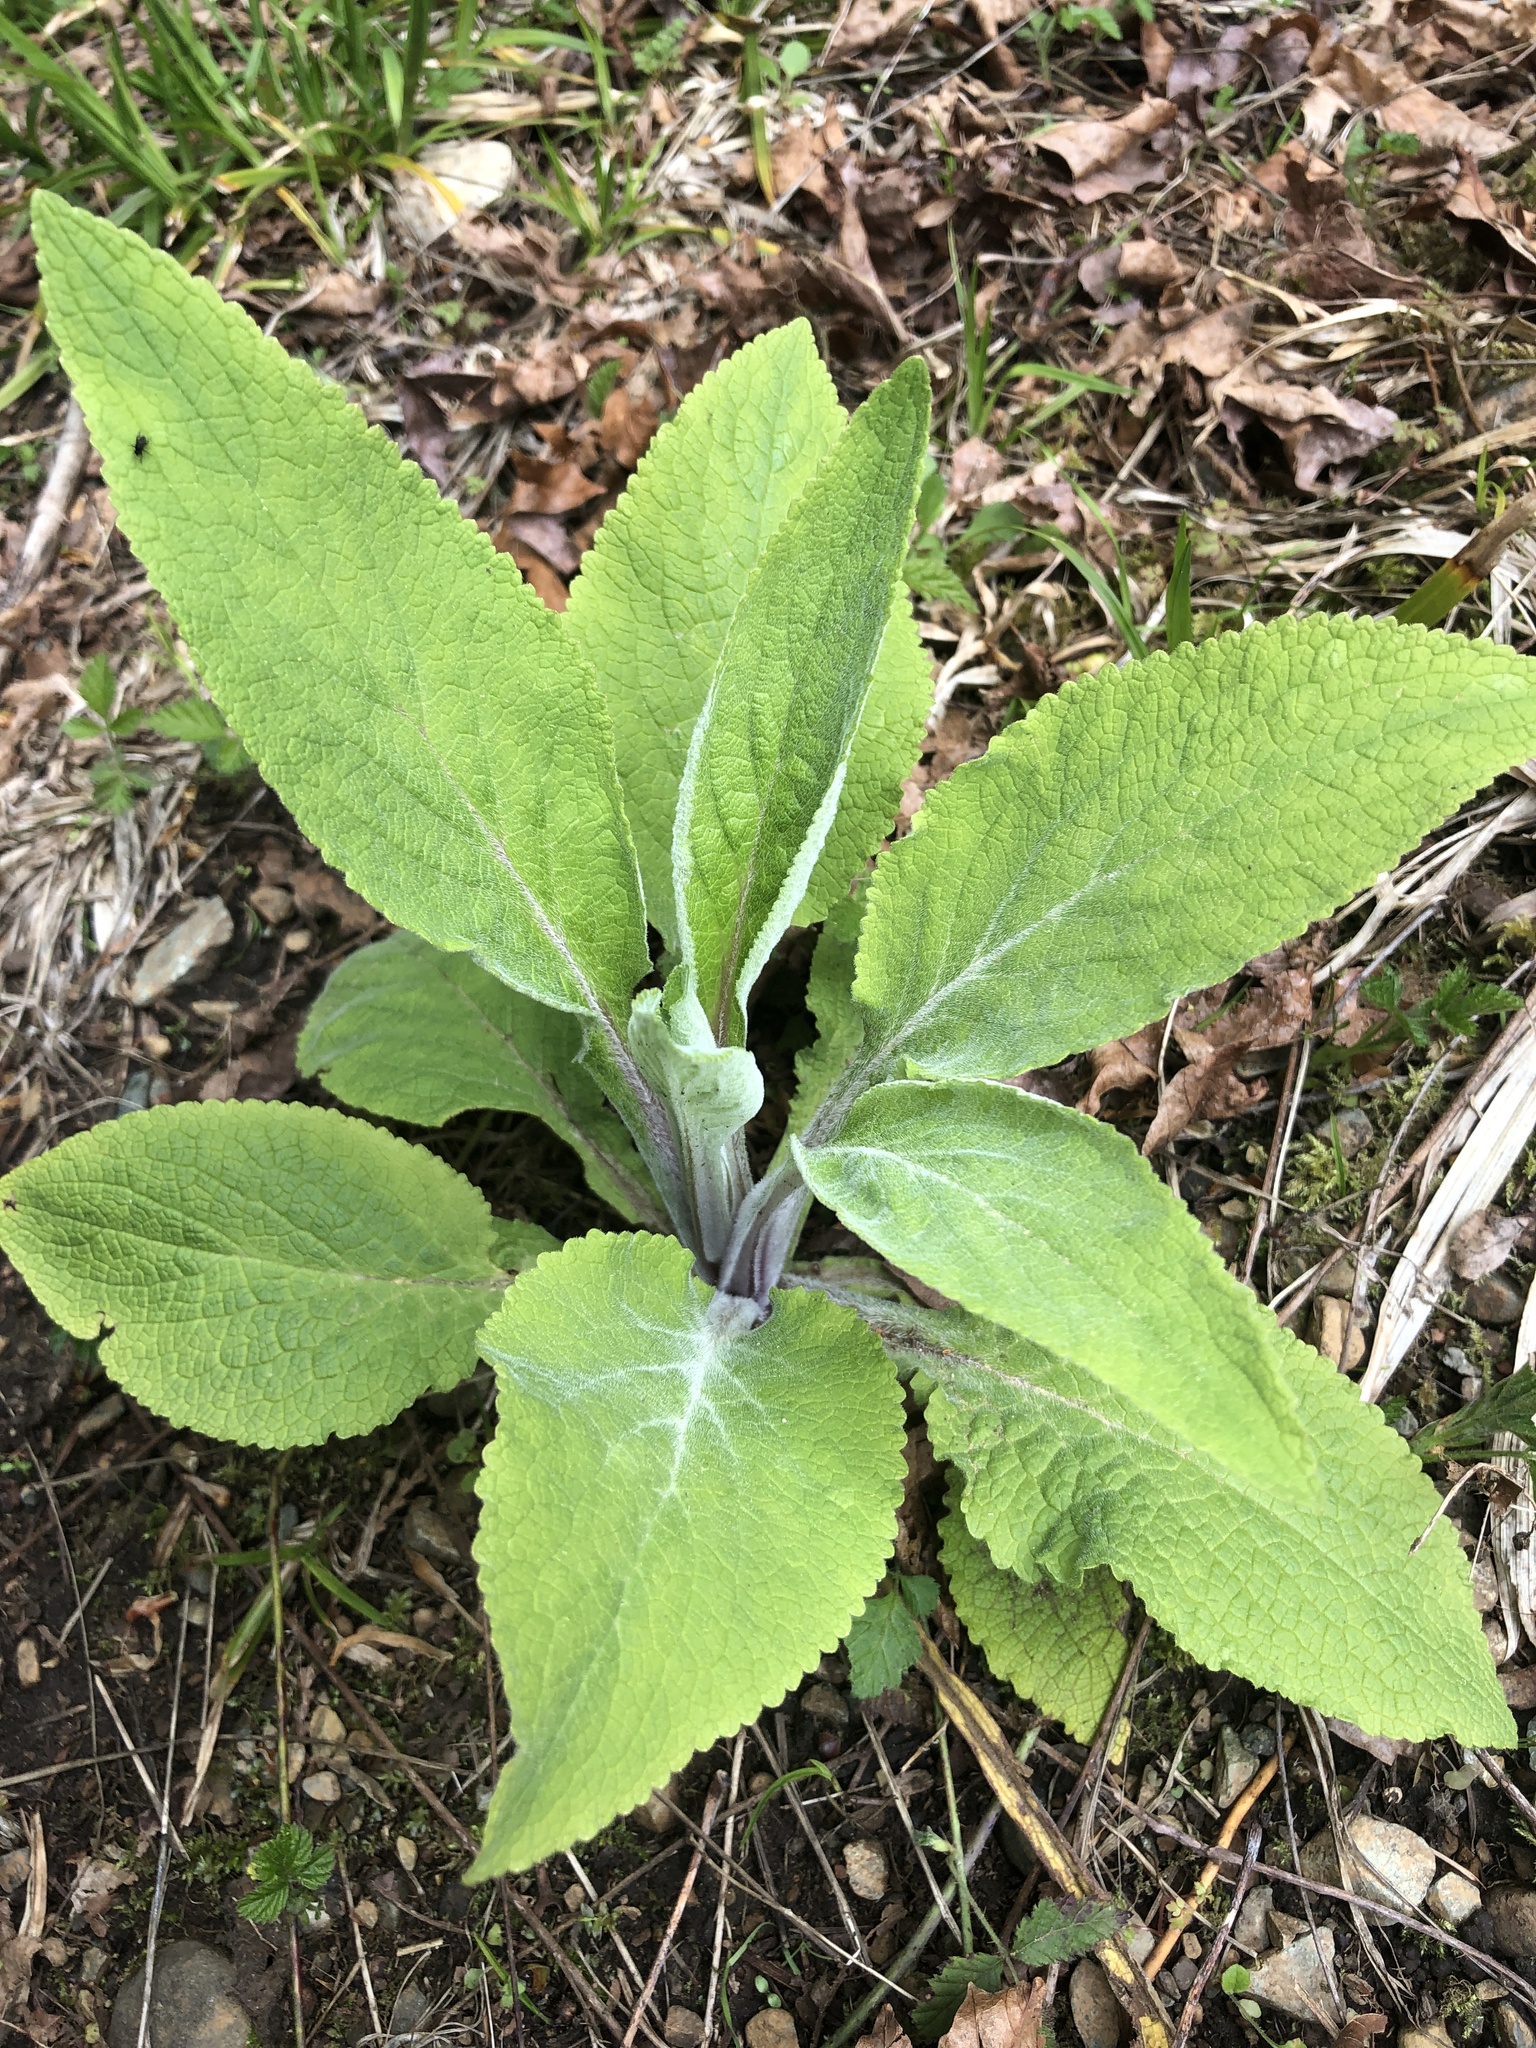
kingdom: Plantae
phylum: Tracheophyta
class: Magnoliopsida
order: Lamiales
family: Plantaginaceae
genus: Digitalis
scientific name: Digitalis purpurea
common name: Foxglove
